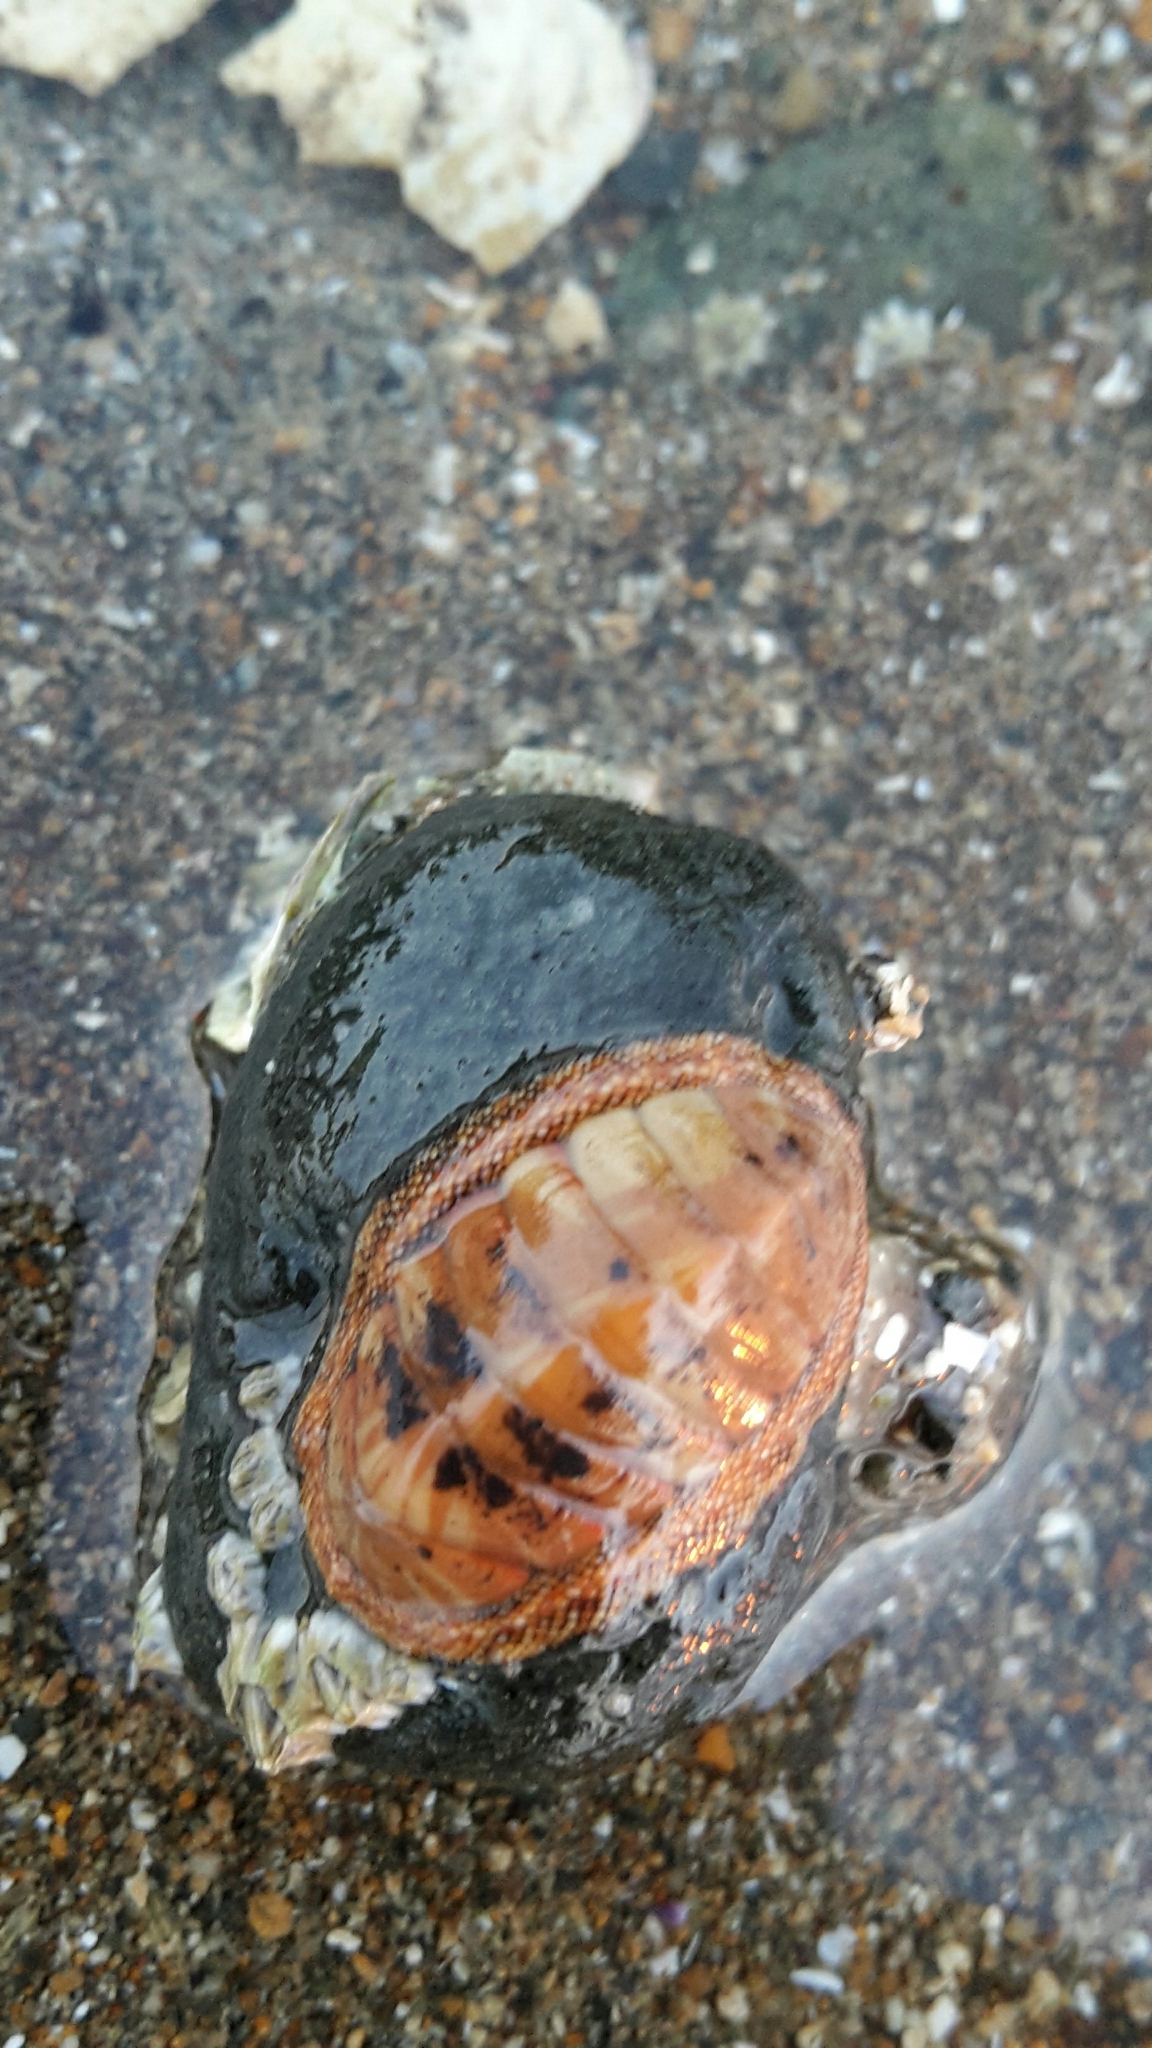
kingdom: Animalia
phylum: Mollusca
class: Polyplacophora
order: Chitonida
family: Chitonidae
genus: Chiton
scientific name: Chiton glaucus
